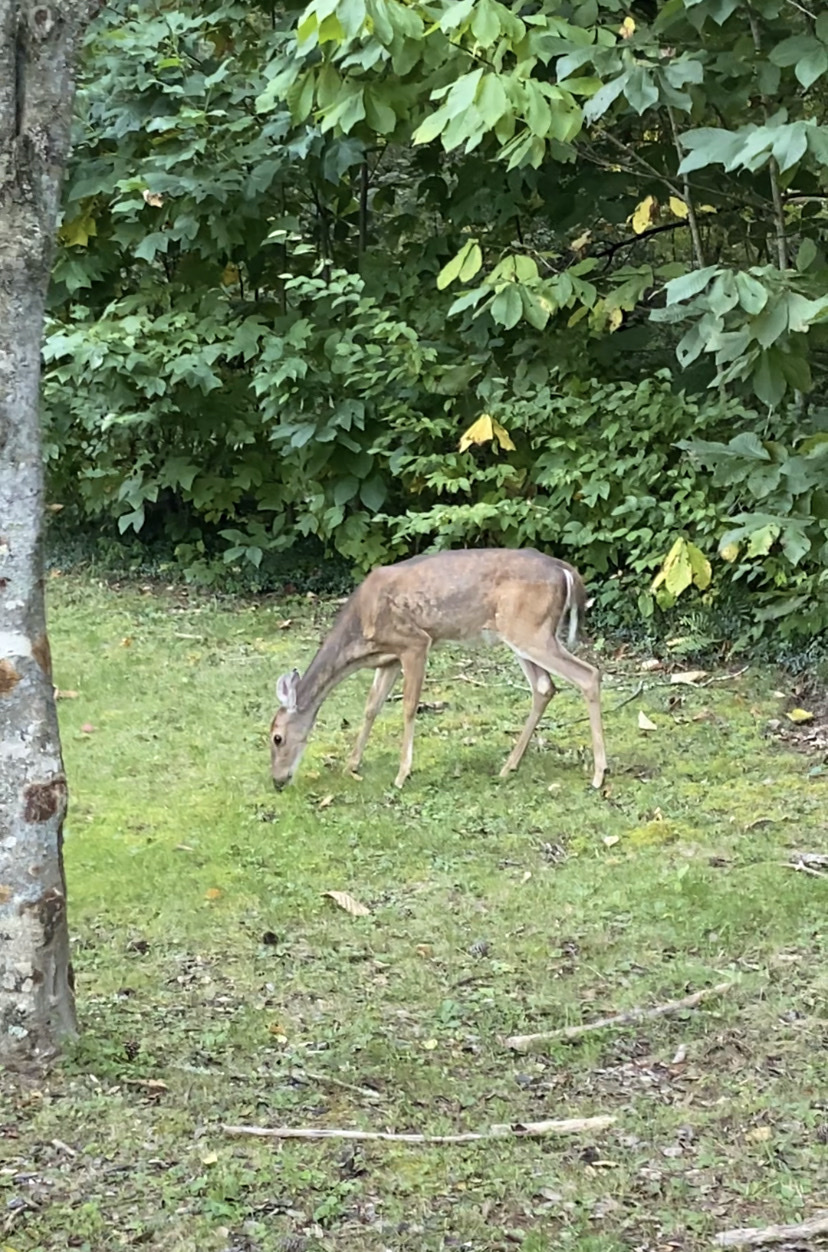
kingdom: Animalia
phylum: Chordata
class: Mammalia
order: Artiodactyla
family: Cervidae
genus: Odocoileus
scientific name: Odocoileus virginianus
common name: White-tailed deer
